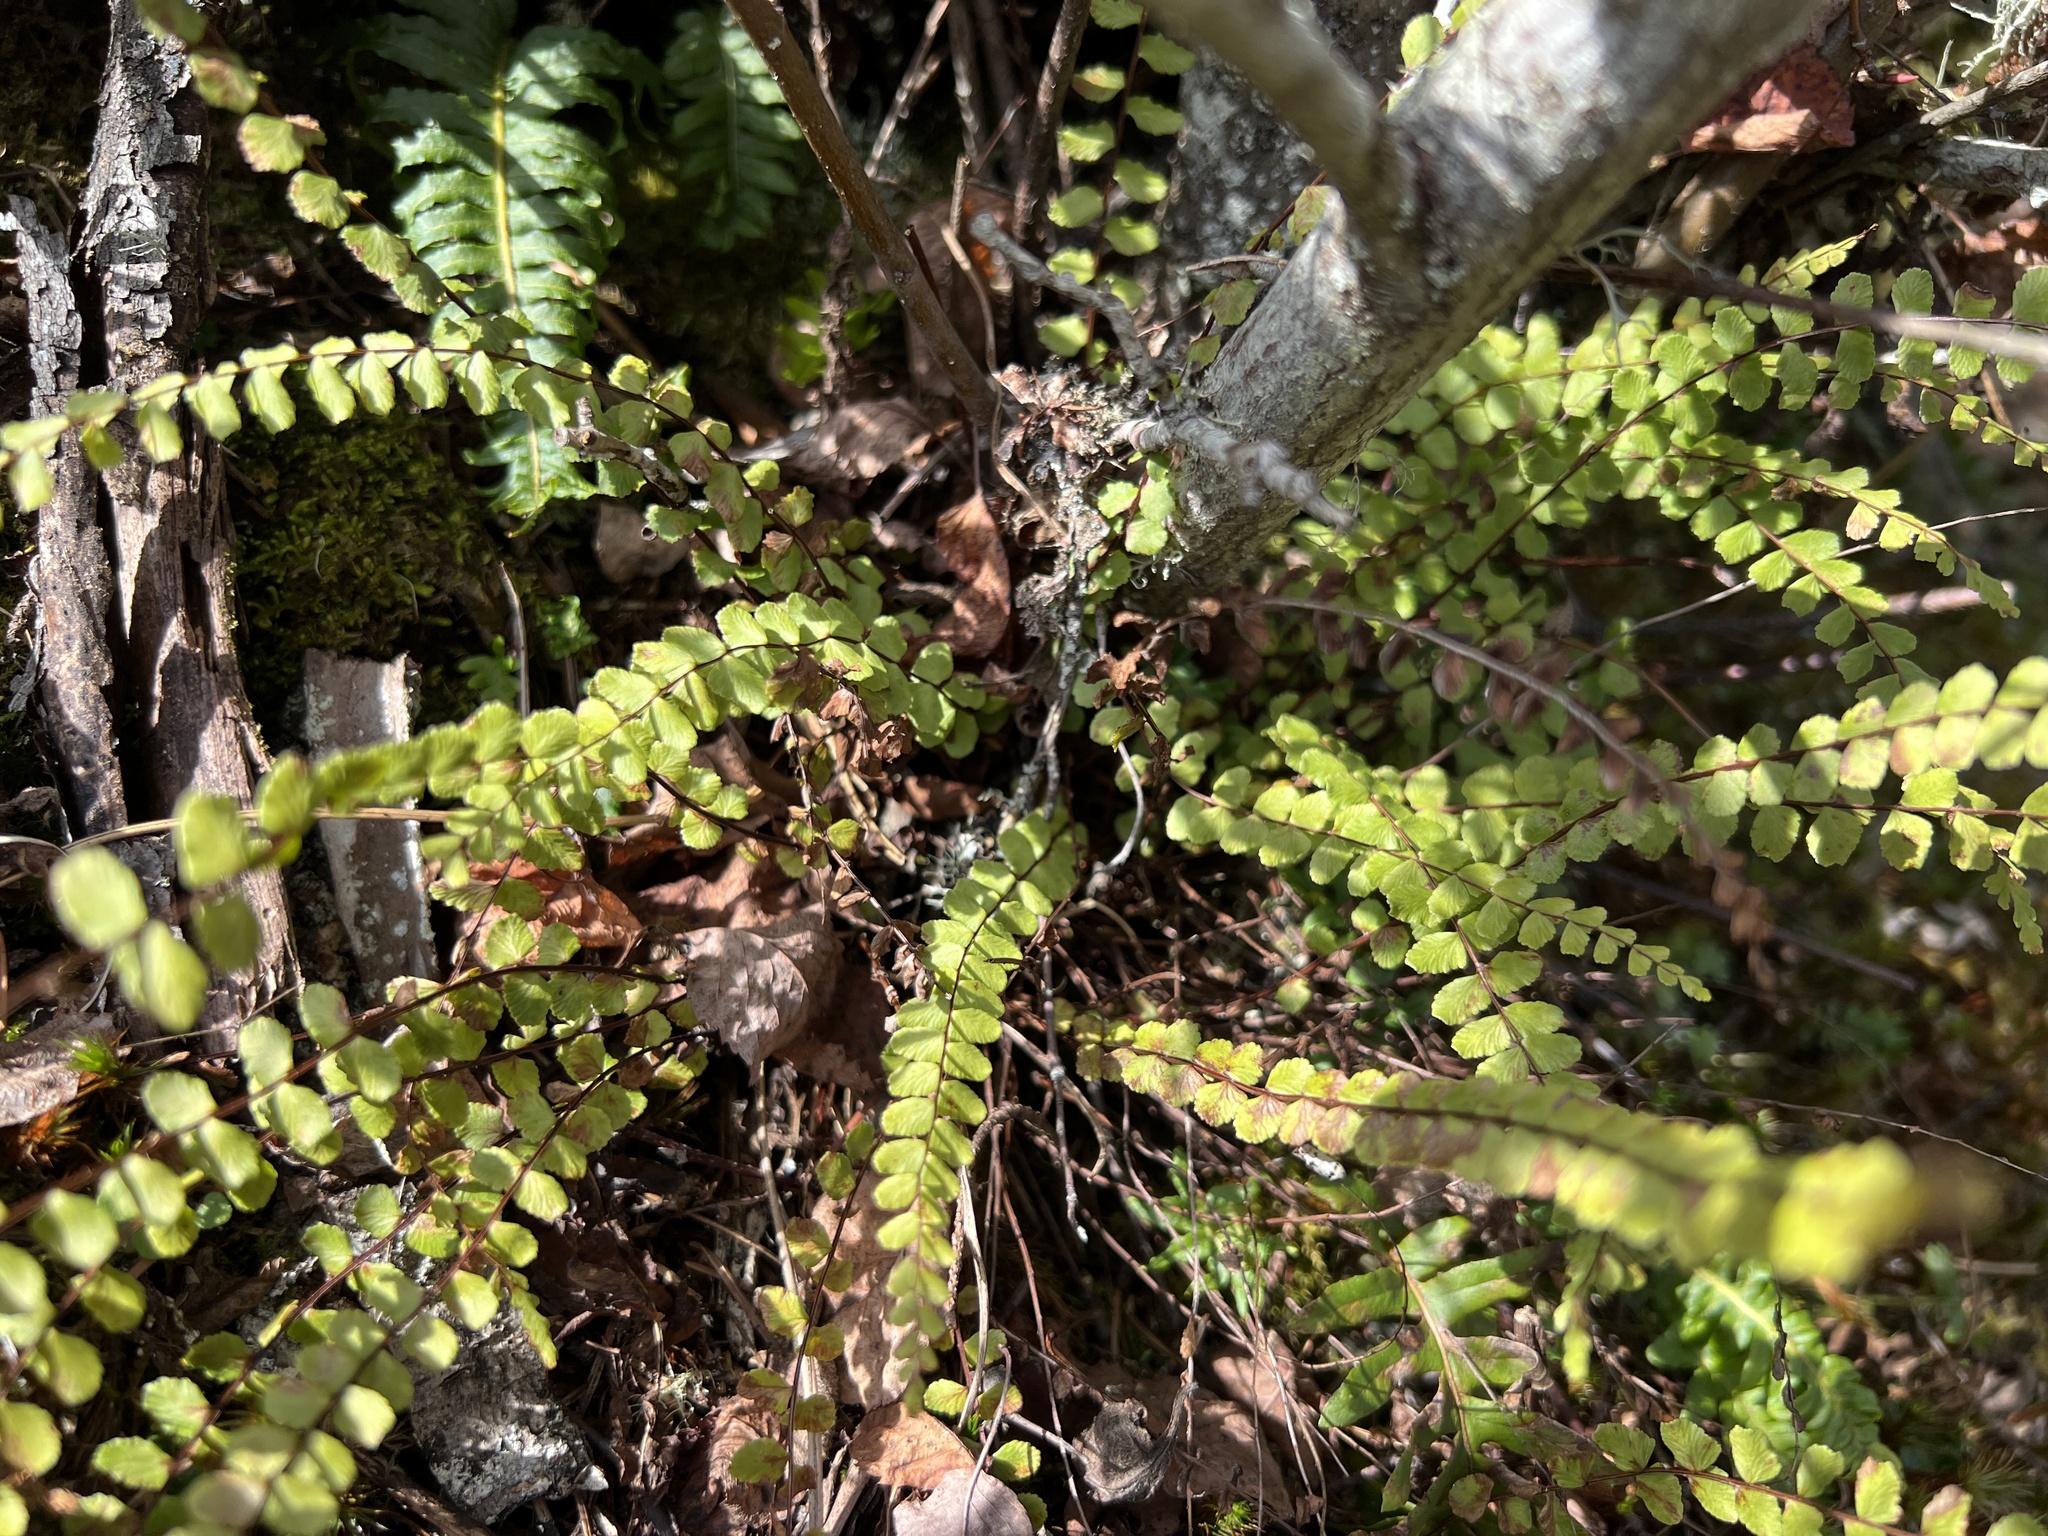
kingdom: Plantae
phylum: Tracheophyta
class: Polypodiopsida
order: Polypodiales
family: Aspleniaceae
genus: Asplenium
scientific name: Asplenium trichomanes
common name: Maidenhair spleenwort
